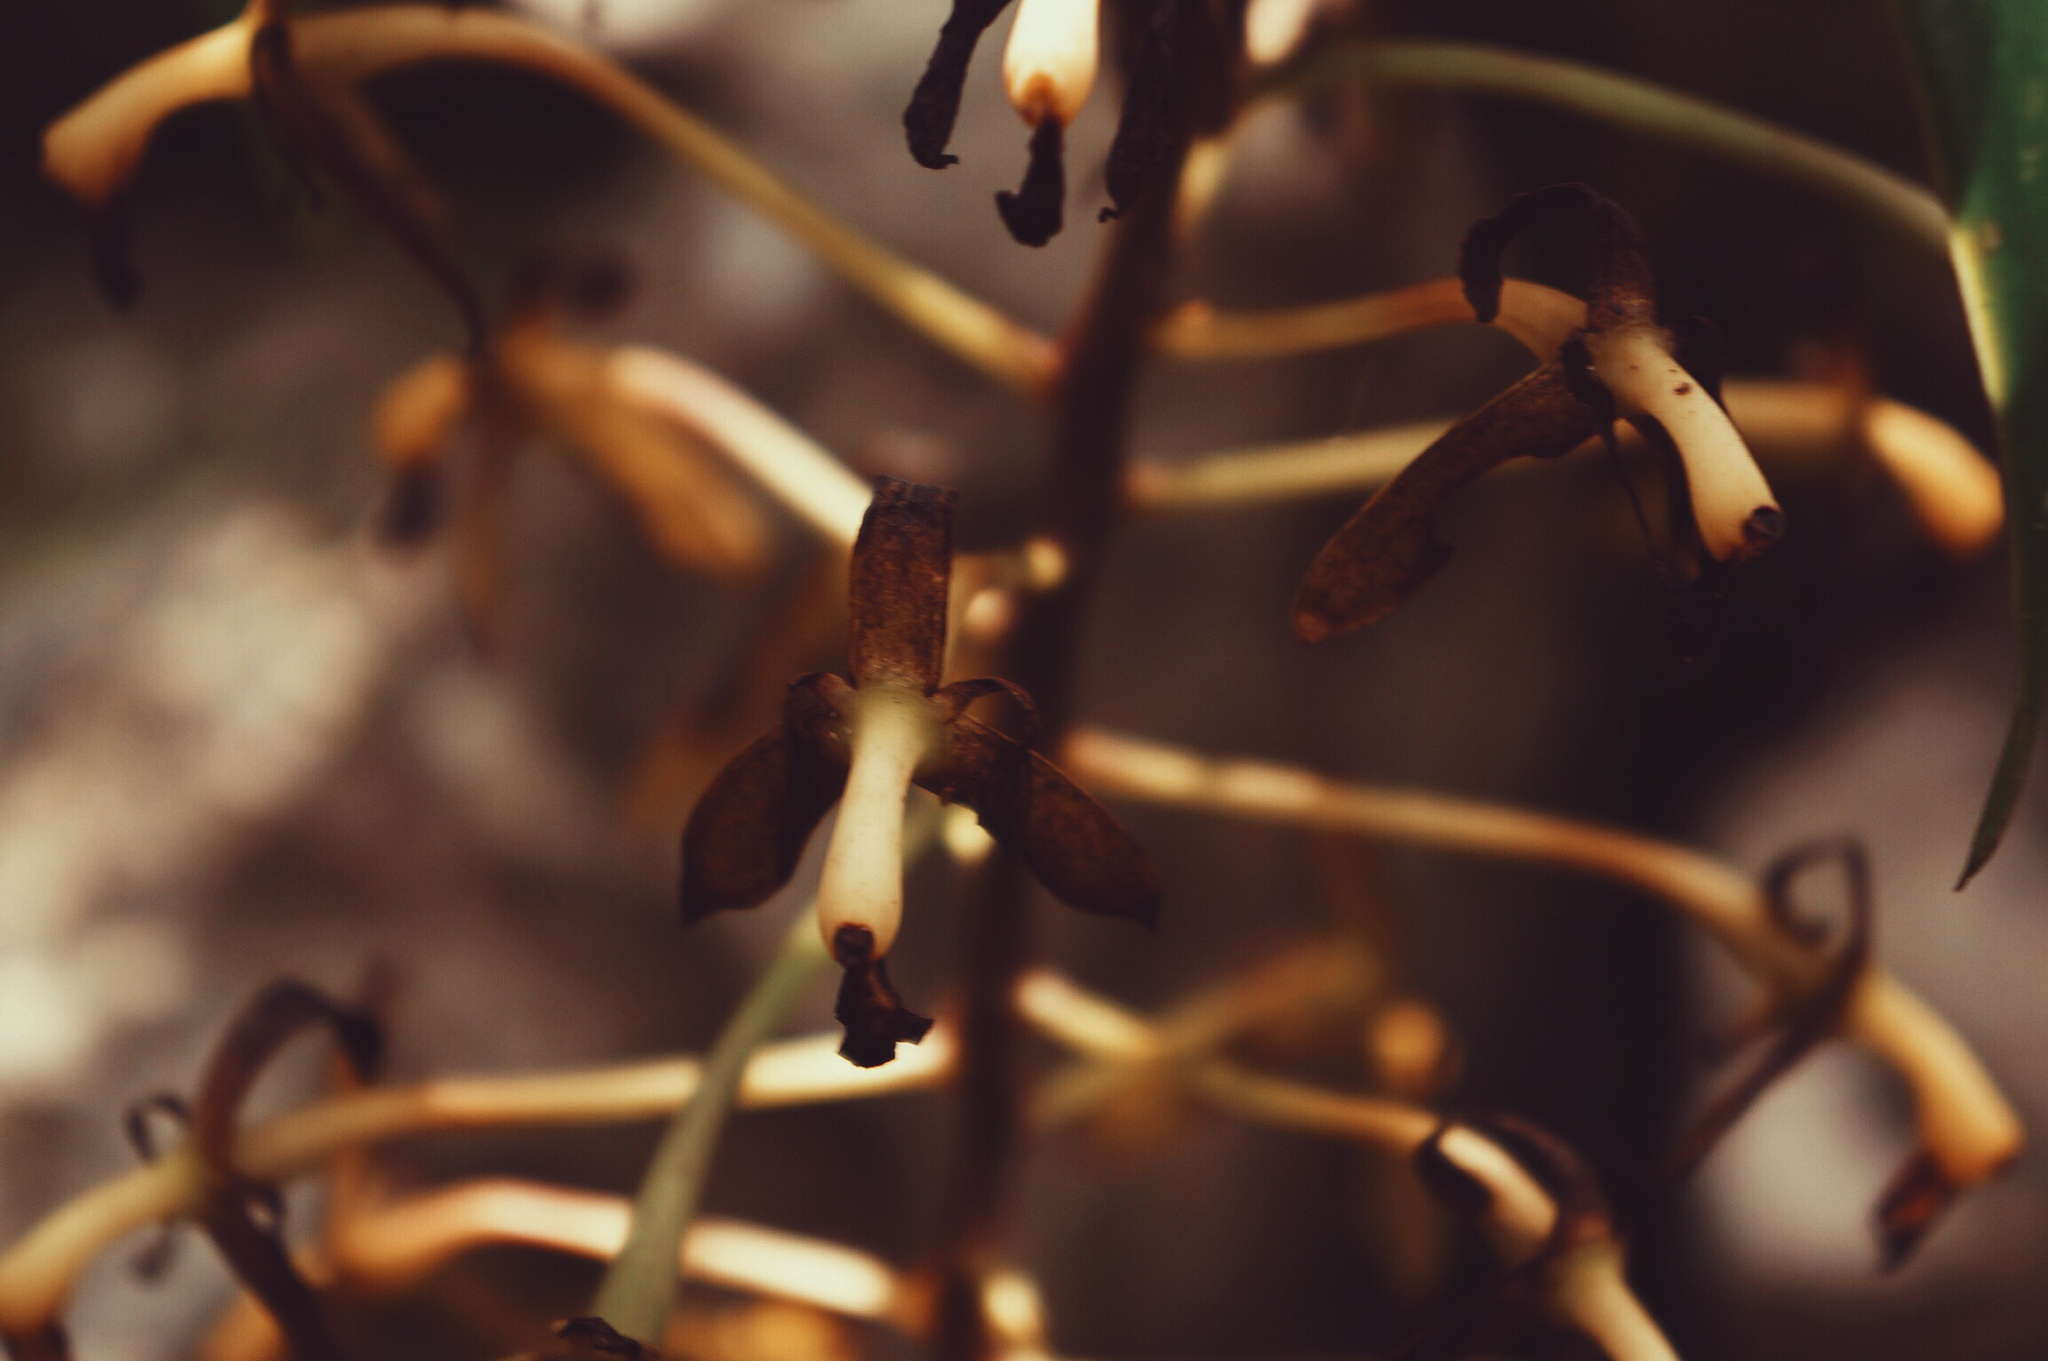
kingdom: Plantae
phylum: Tracheophyta
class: Liliopsida
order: Asparagales
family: Orchidaceae
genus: Epidendrum
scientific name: Epidendrum cristatum
